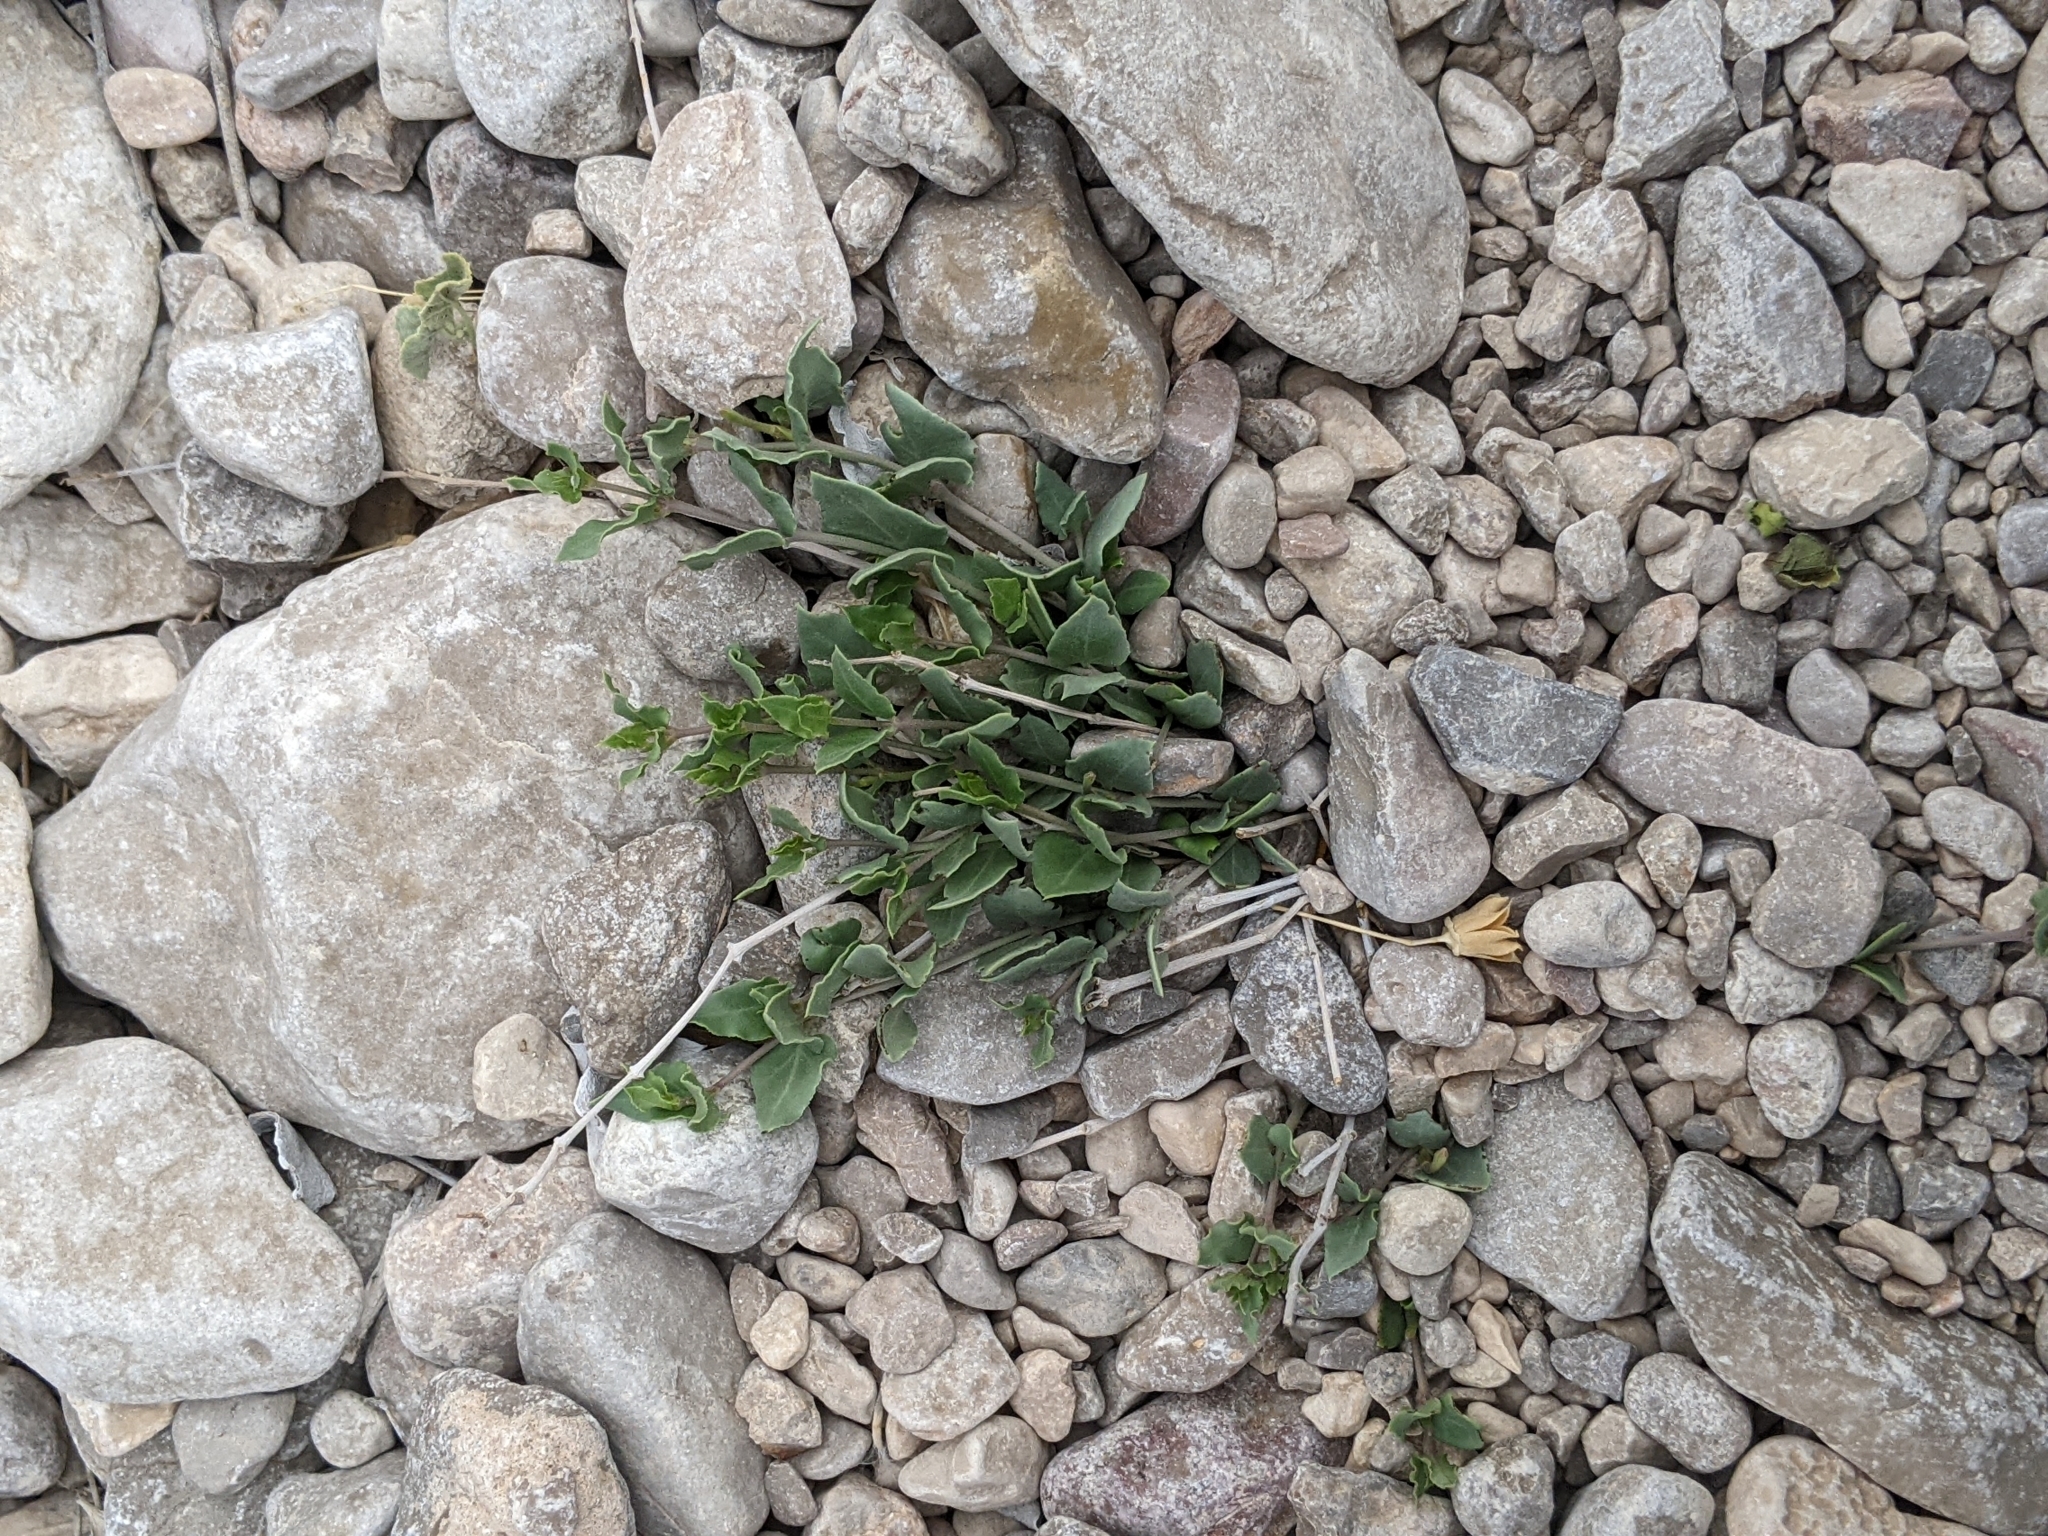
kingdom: Plantae
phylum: Tracheophyta
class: Magnoliopsida
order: Caryophyllales
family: Nyctaginaceae
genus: Acleisanthes
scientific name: Acleisanthes longiflora
